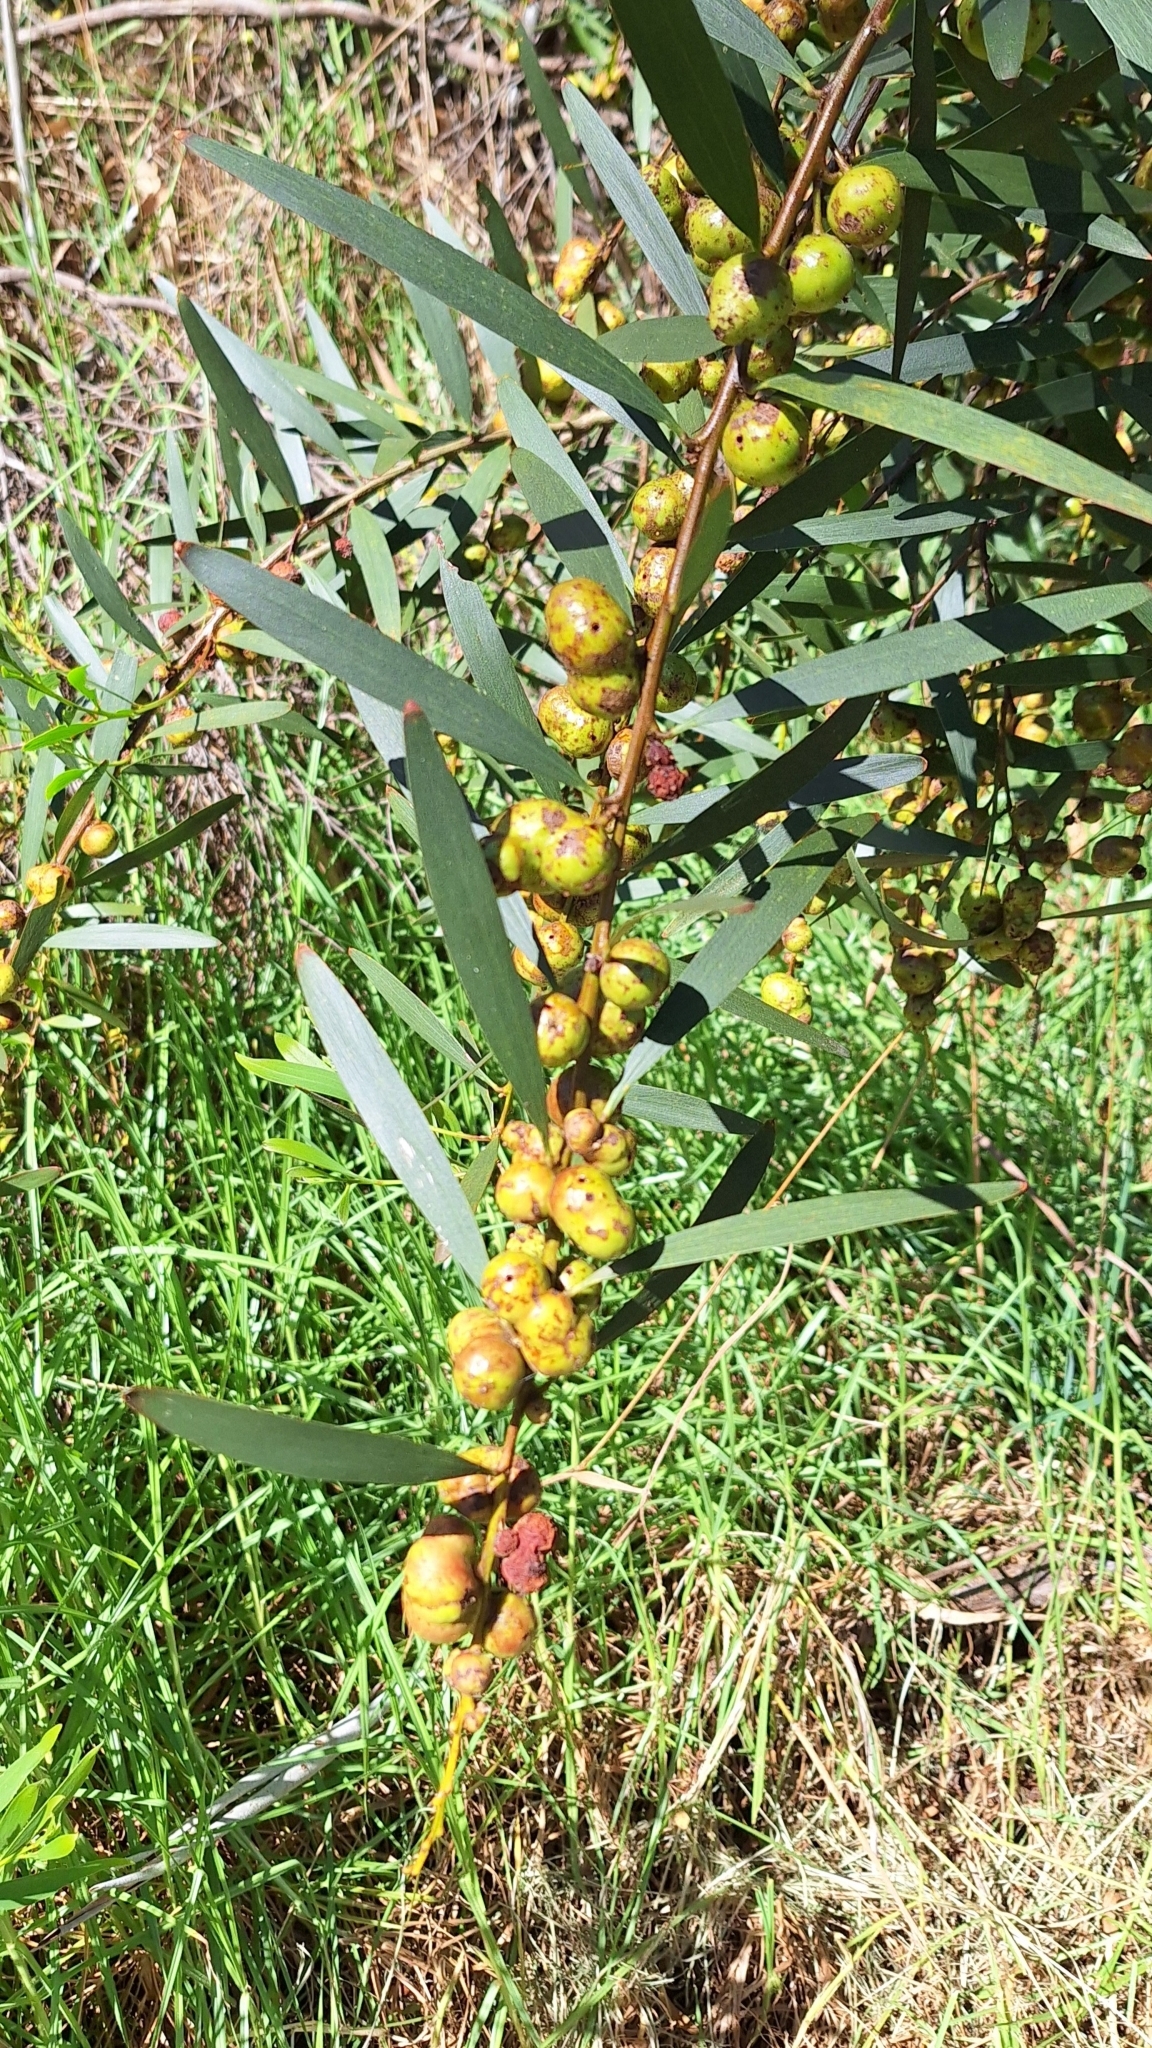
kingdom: Plantae
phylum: Tracheophyta
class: Magnoliopsida
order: Fabales
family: Fabaceae
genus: Acacia
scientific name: Acacia longifolia
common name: Sydney golden wattle
